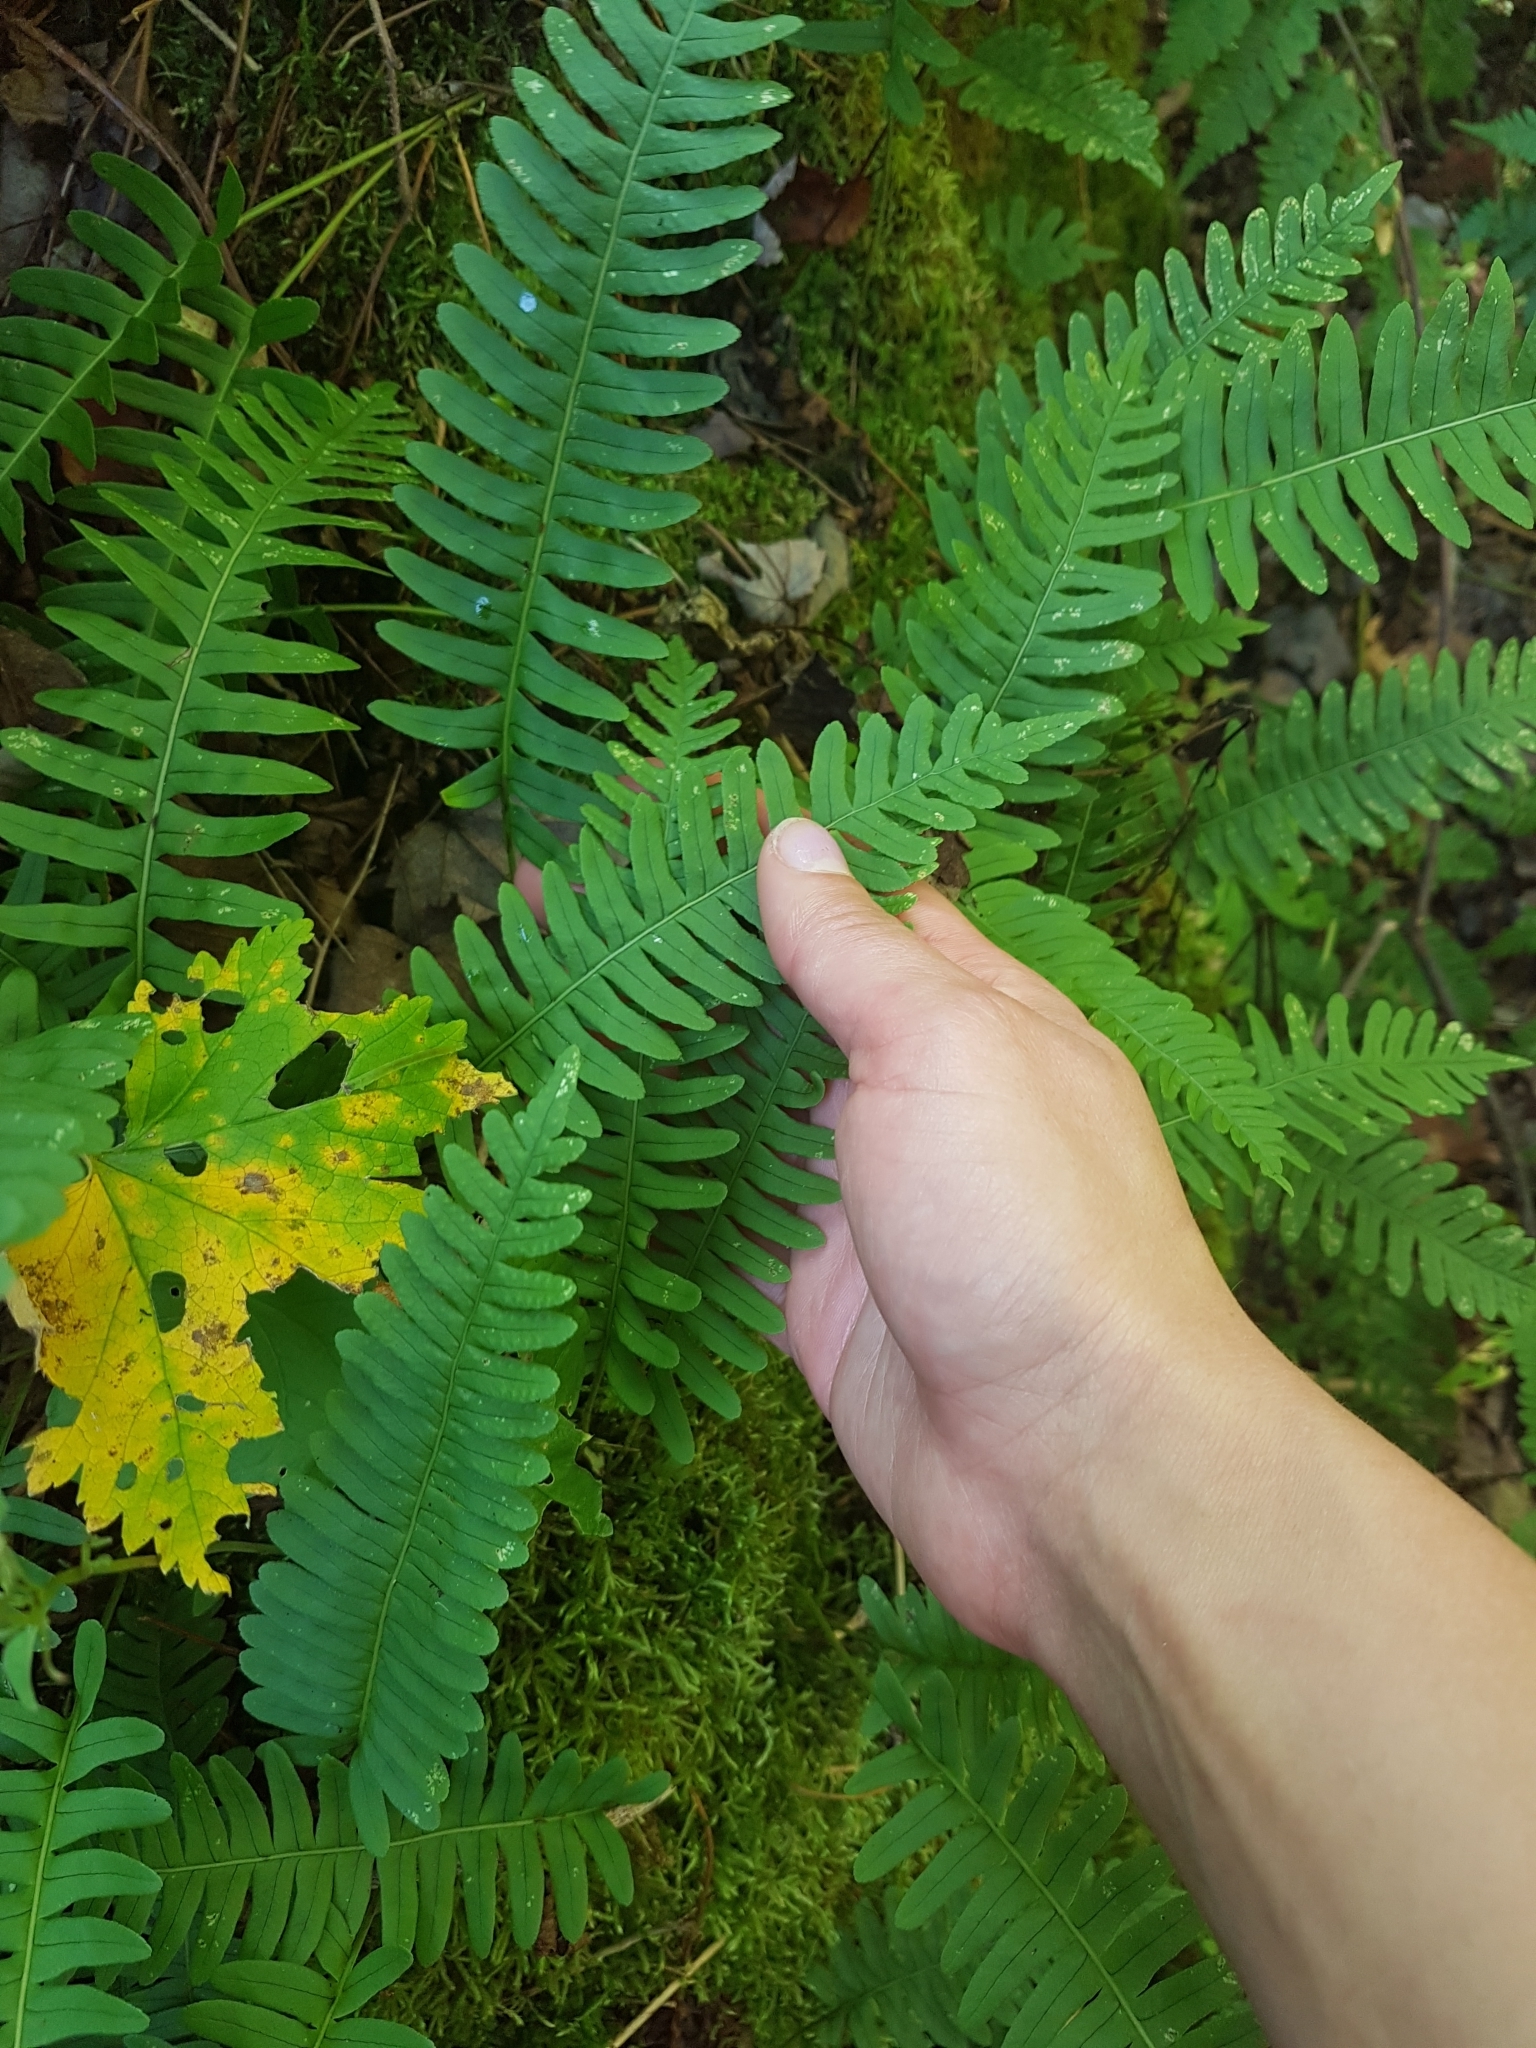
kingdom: Plantae
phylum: Tracheophyta
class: Polypodiopsida
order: Polypodiales
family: Polypodiaceae
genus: Polypodium
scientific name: Polypodium virginianum
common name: American wall fern
